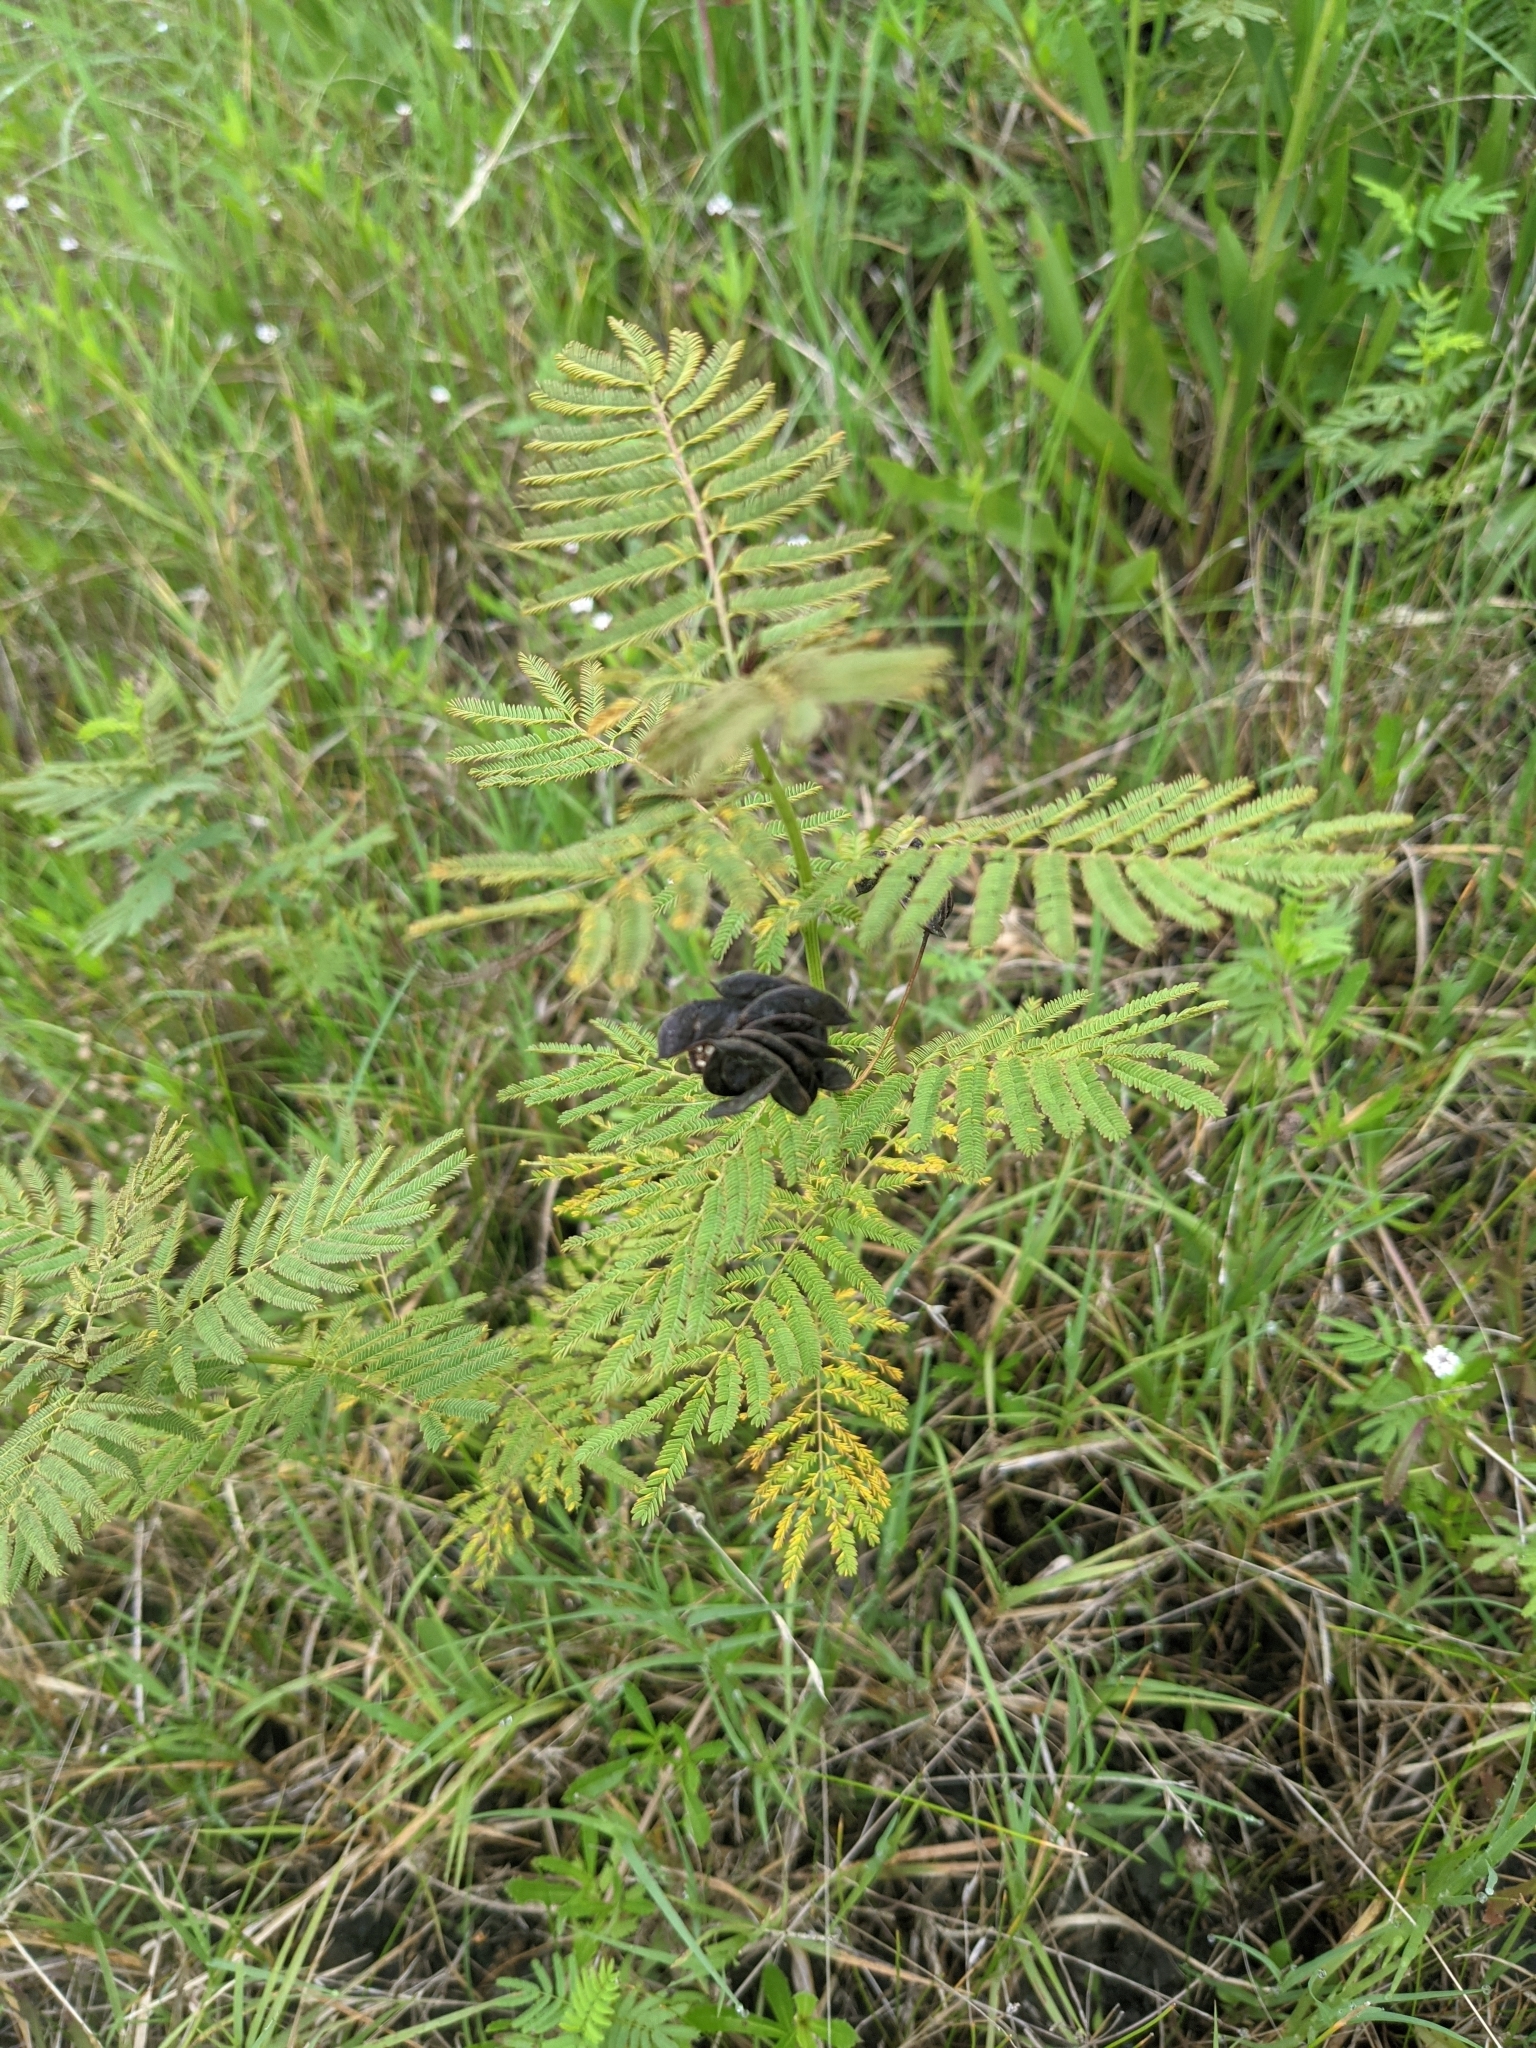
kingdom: Plantae
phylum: Tracheophyta
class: Magnoliopsida
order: Fabales
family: Fabaceae
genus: Desmanthus
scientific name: Desmanthus illinoensis
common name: Illinois bundle-flower
